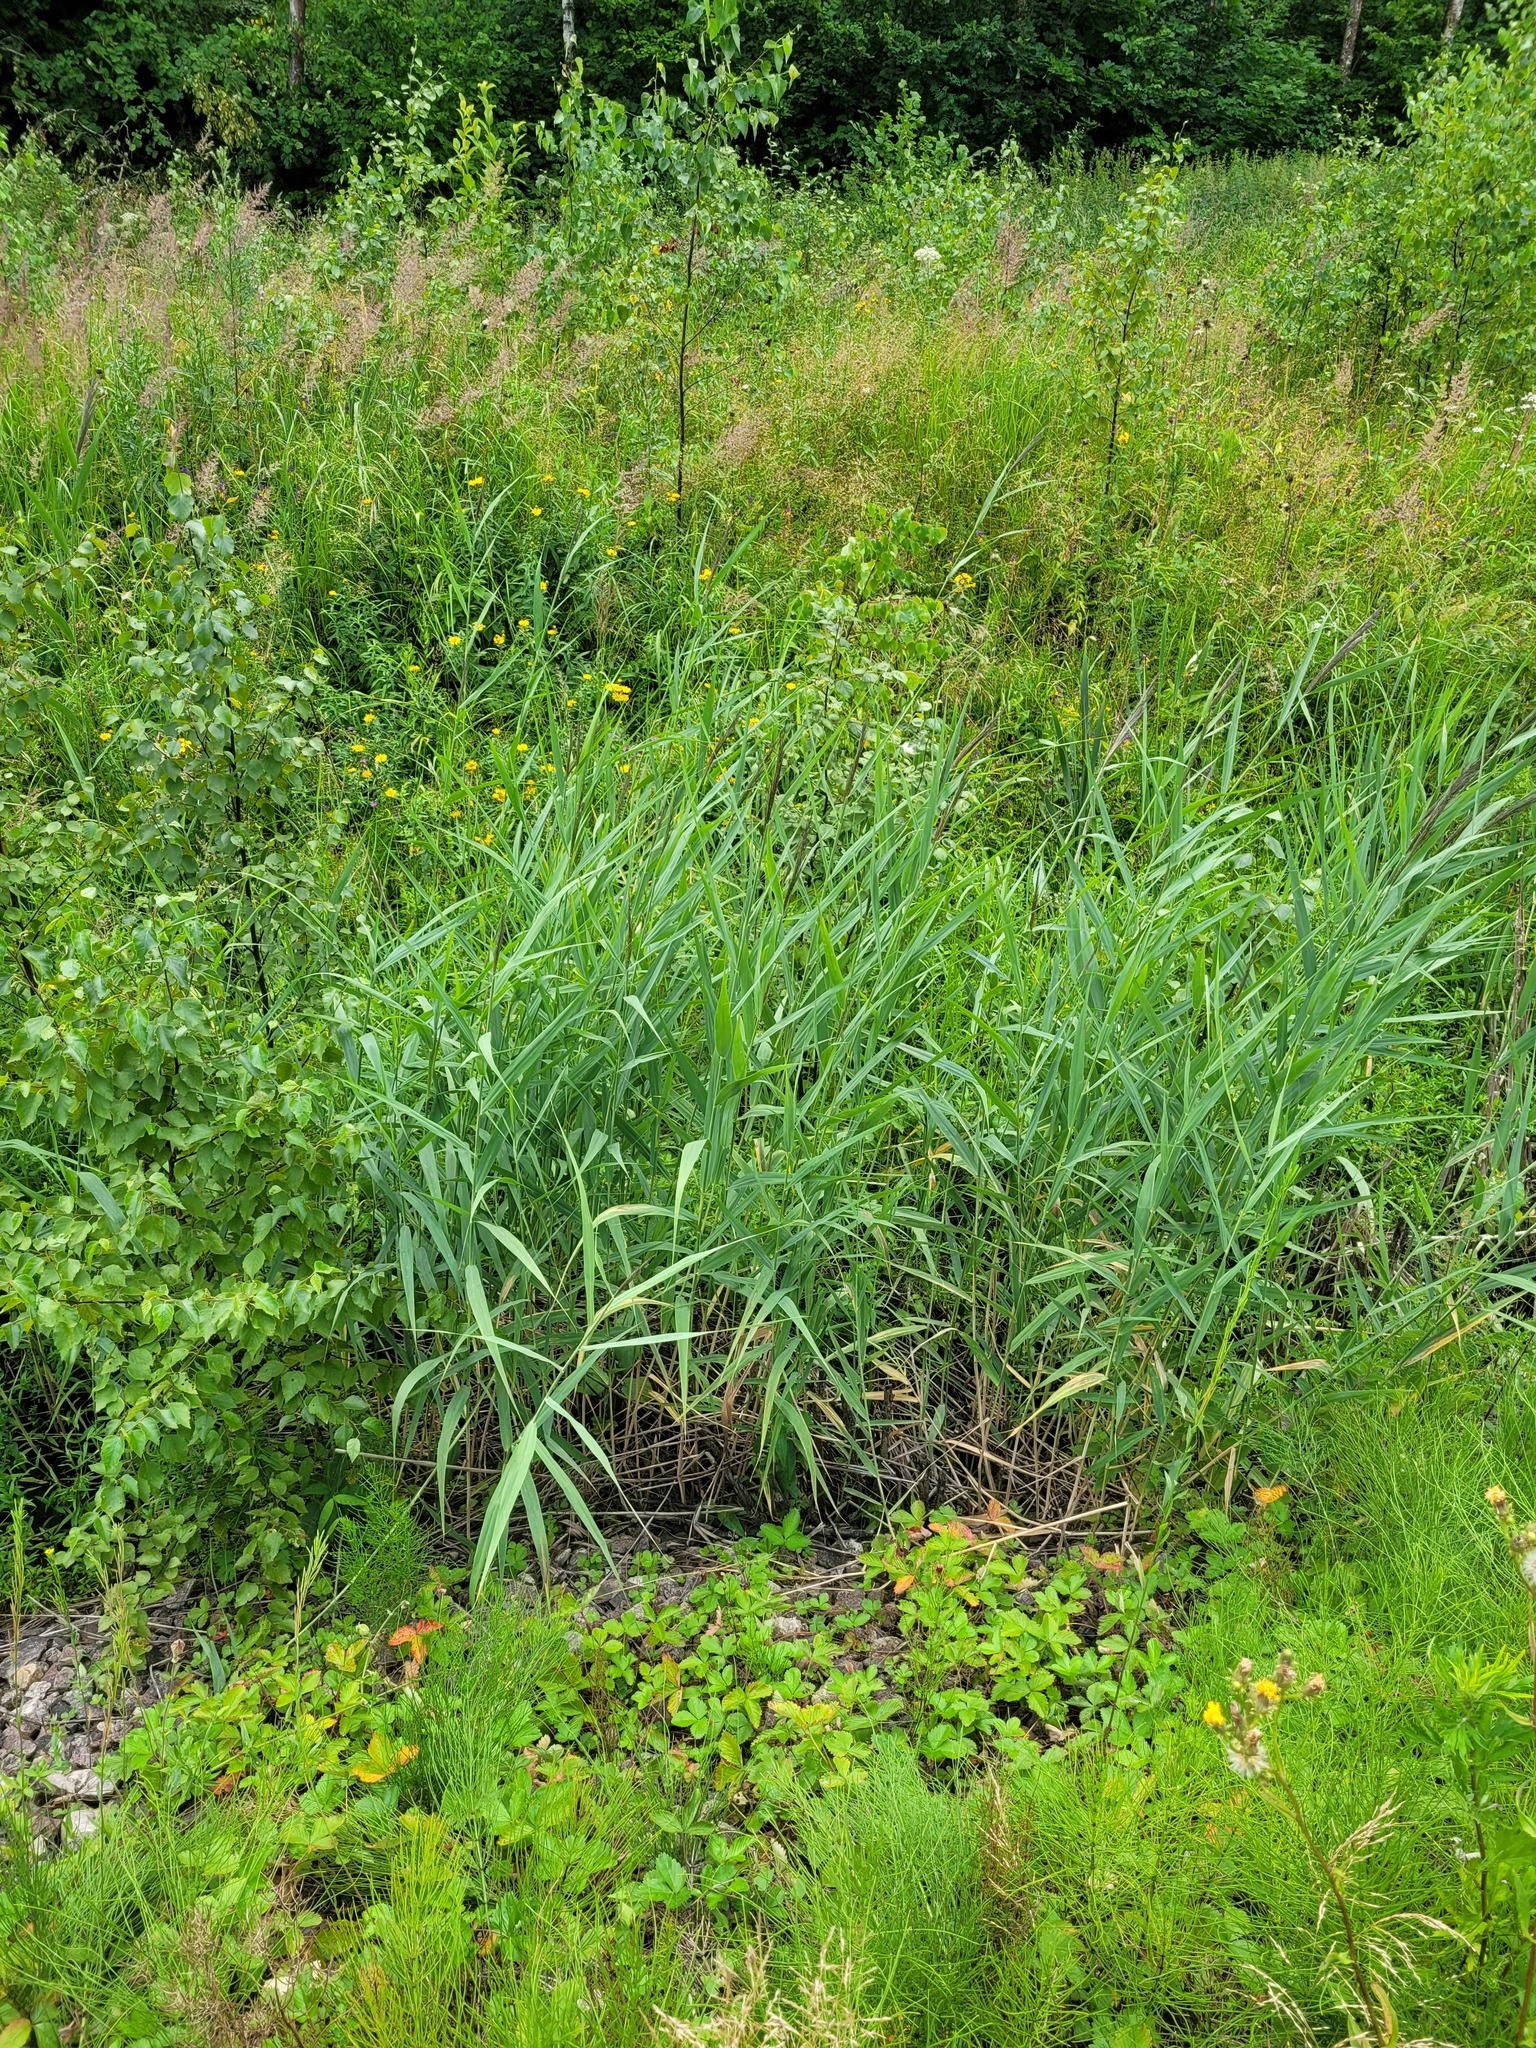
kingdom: Plantae
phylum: Tracheophyta
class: Liliopsida
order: Poales
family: Poaceae
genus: Phragmites
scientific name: Phragmites australis
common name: Common reed
